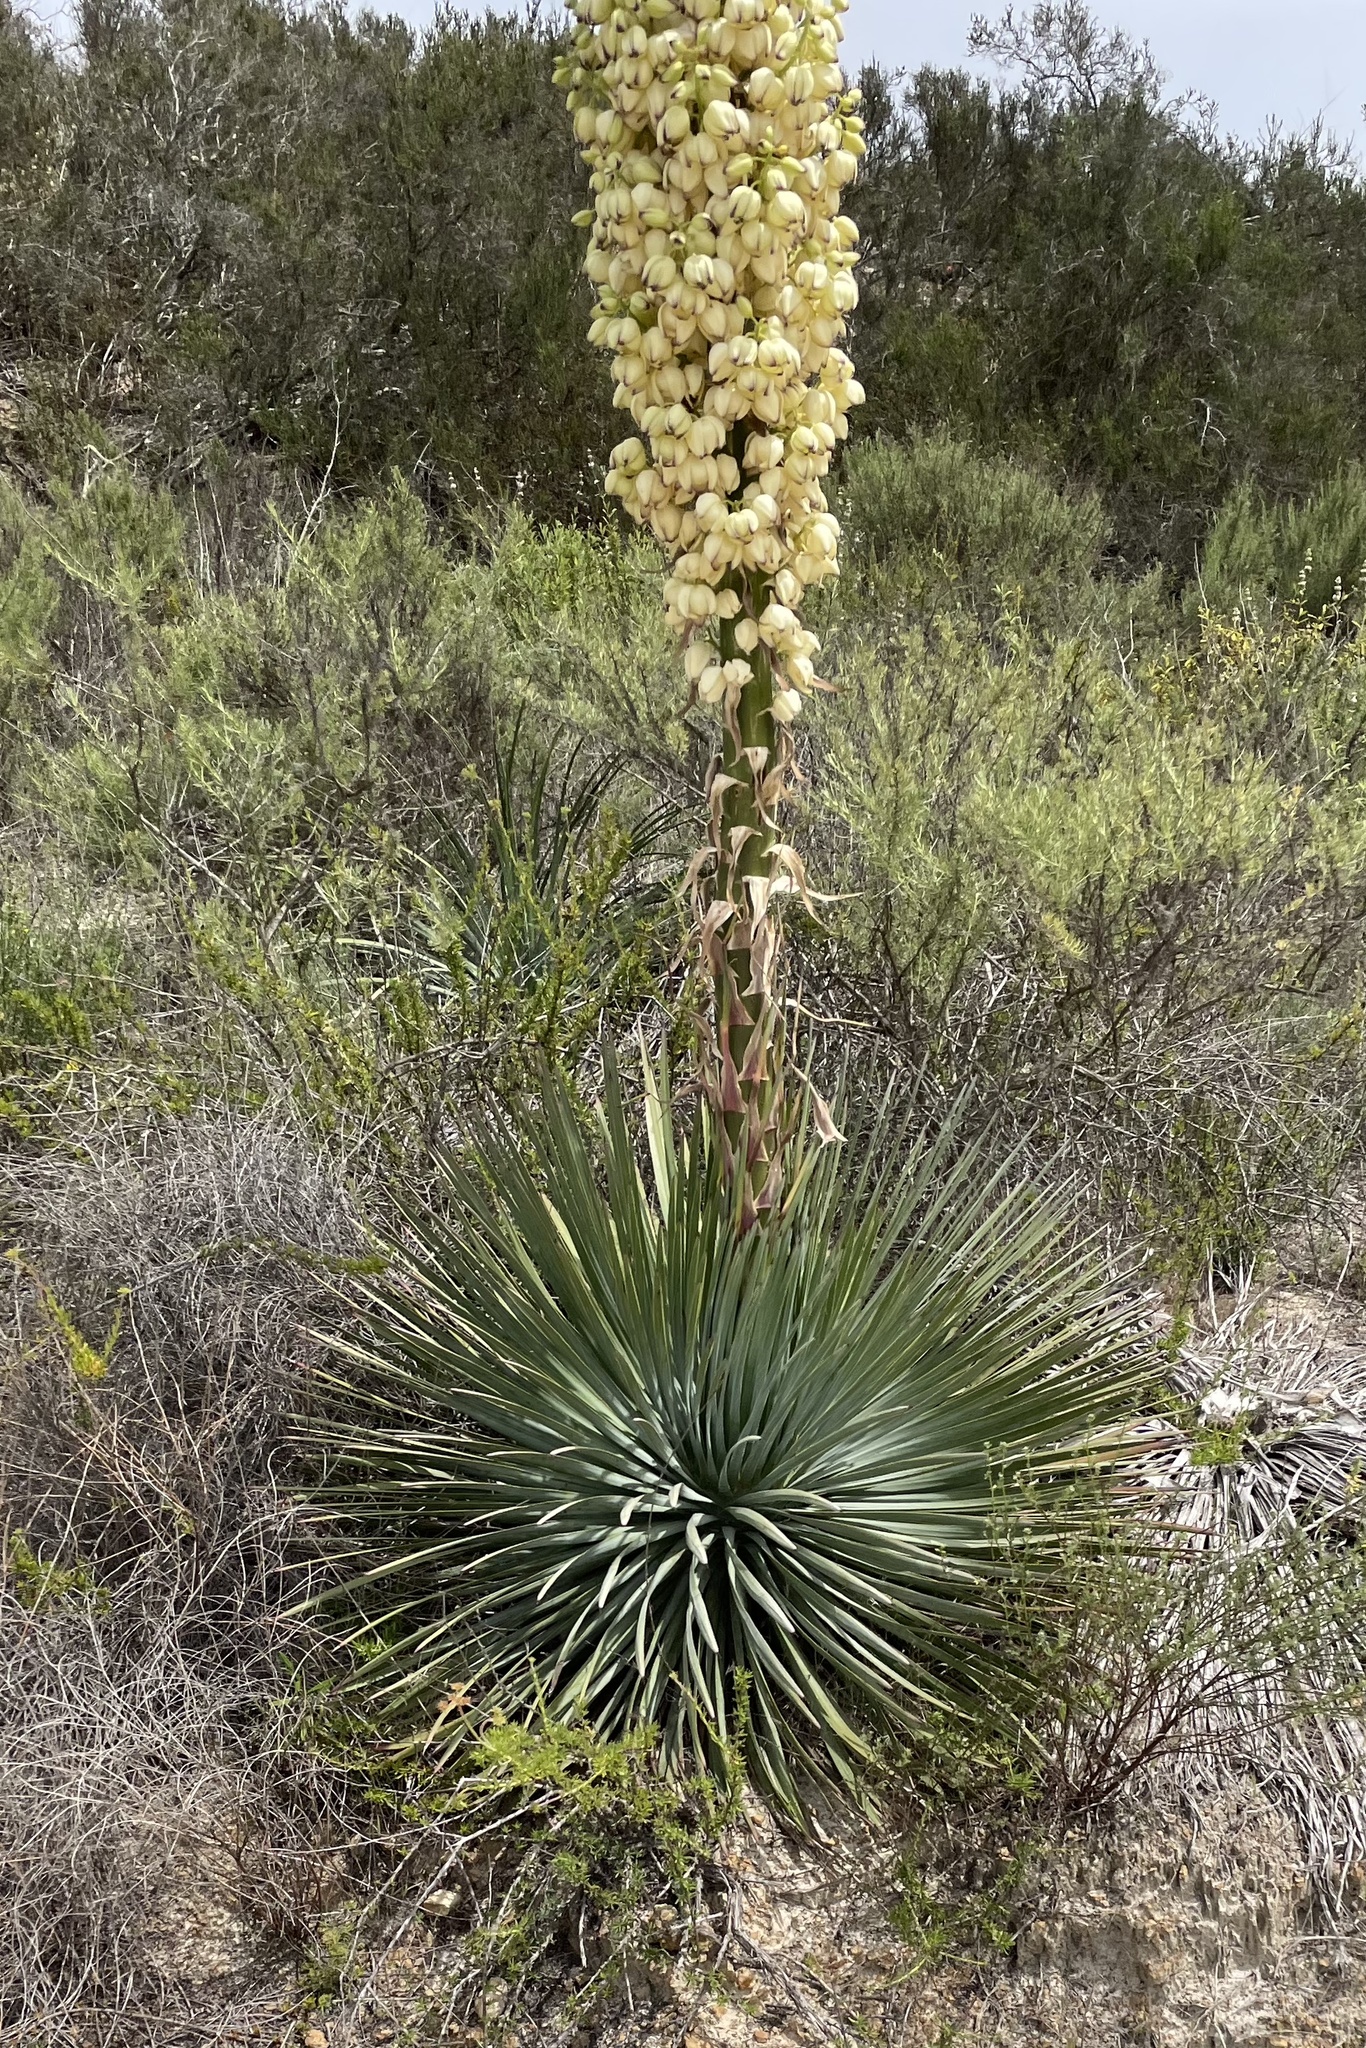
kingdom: Plantae
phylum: Tracheophyta
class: Liliopsida
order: Asparagales
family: Asparagaceae
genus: Hesperoyucca
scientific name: Hesperoyucca whipplei
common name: Our lord's-candle
